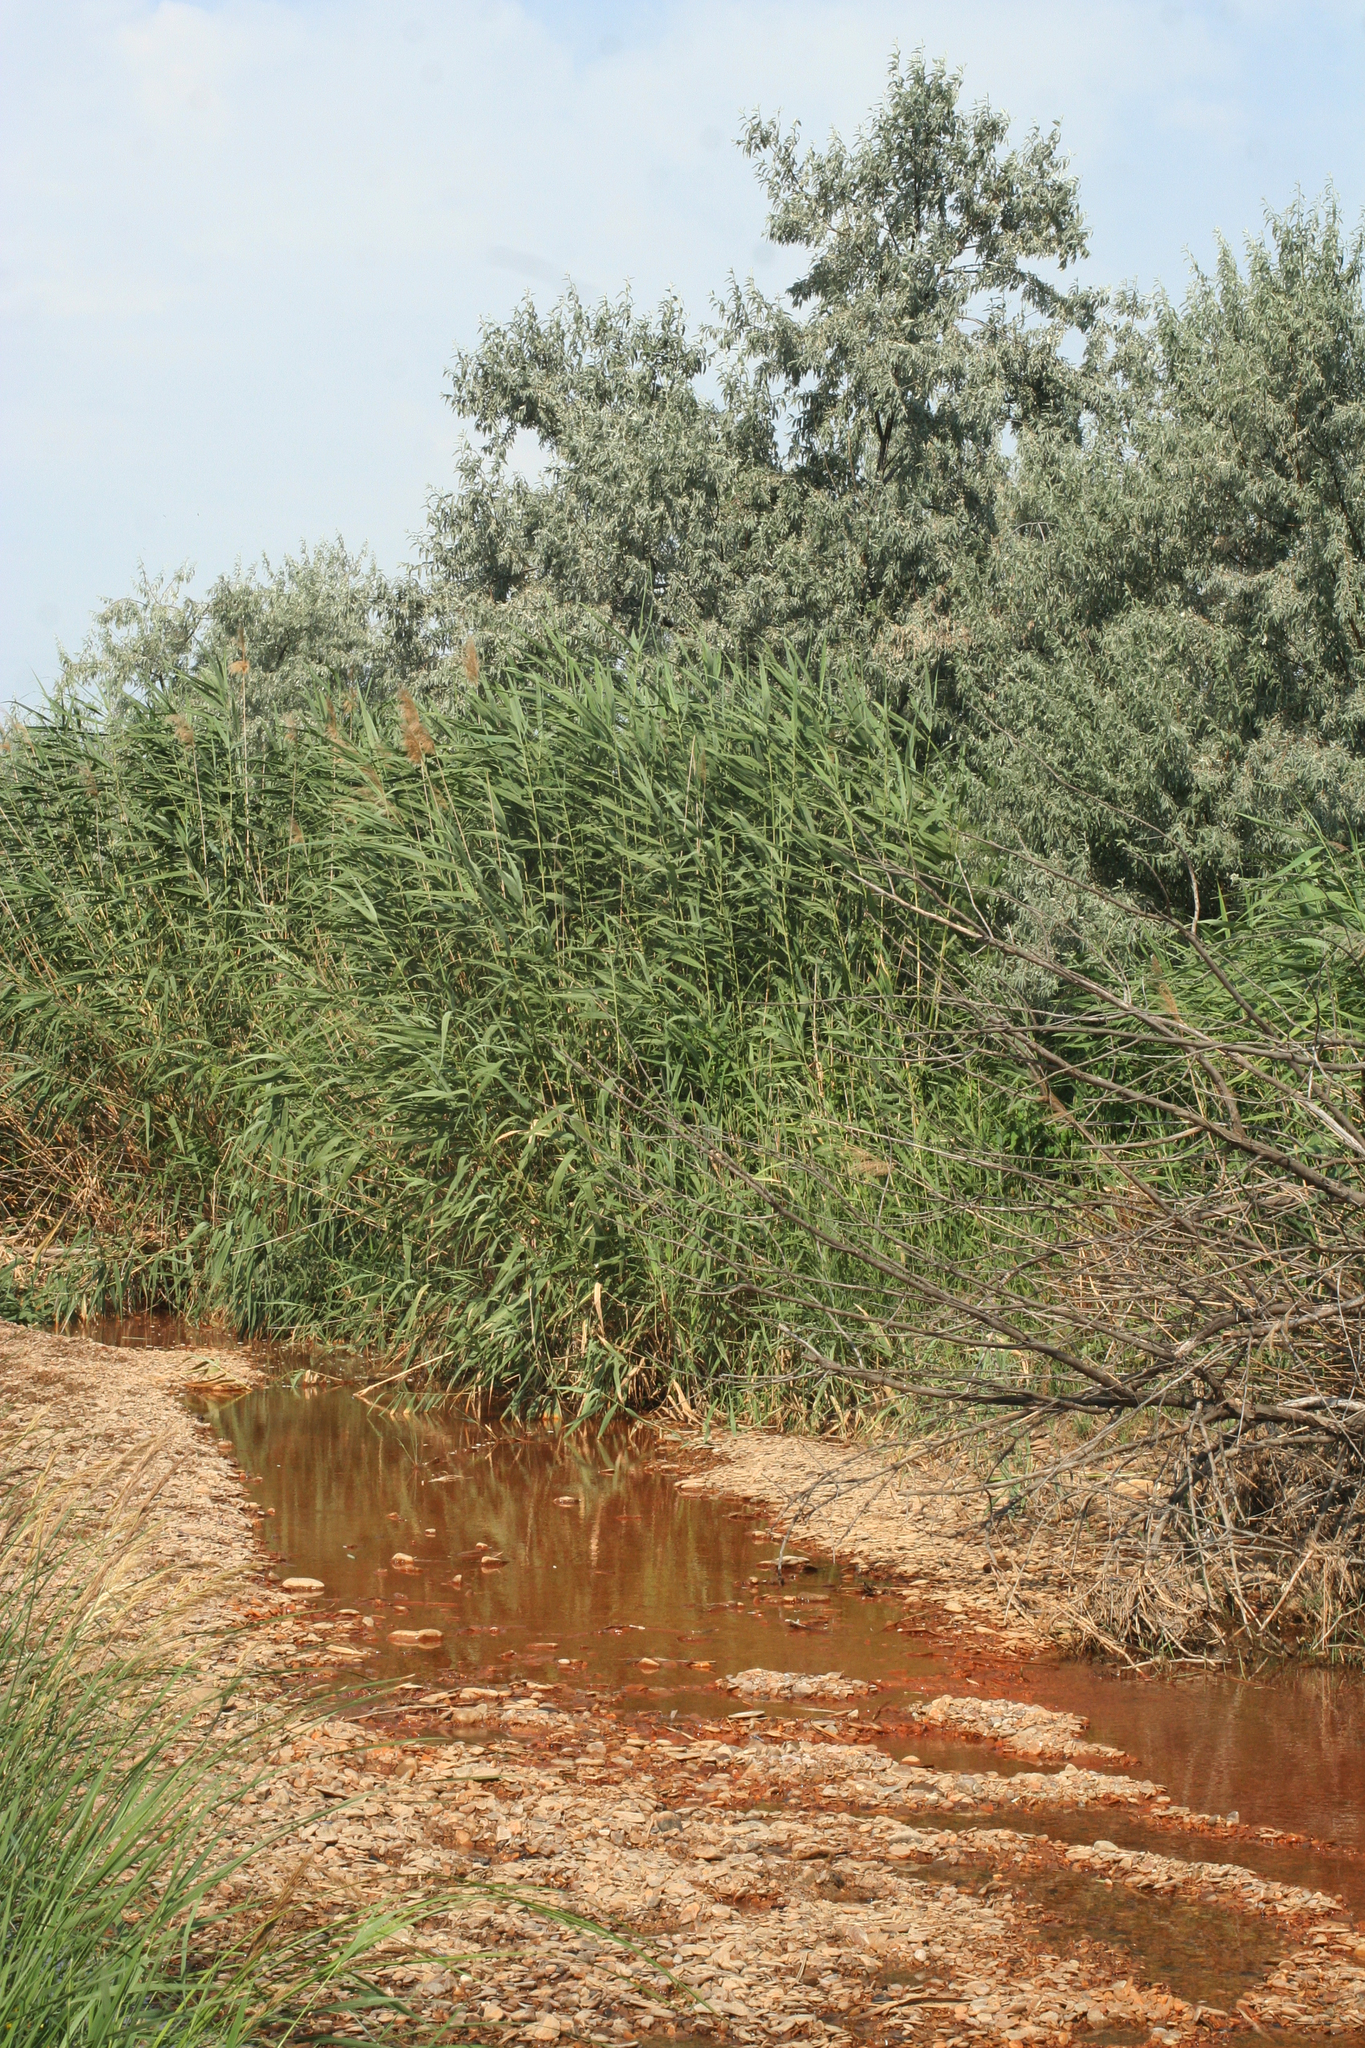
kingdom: Plantae
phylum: Tracheophyta
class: Liliopsida
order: Poales
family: Poaceae
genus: Phragmites
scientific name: Phragmites australis
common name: Common reed
